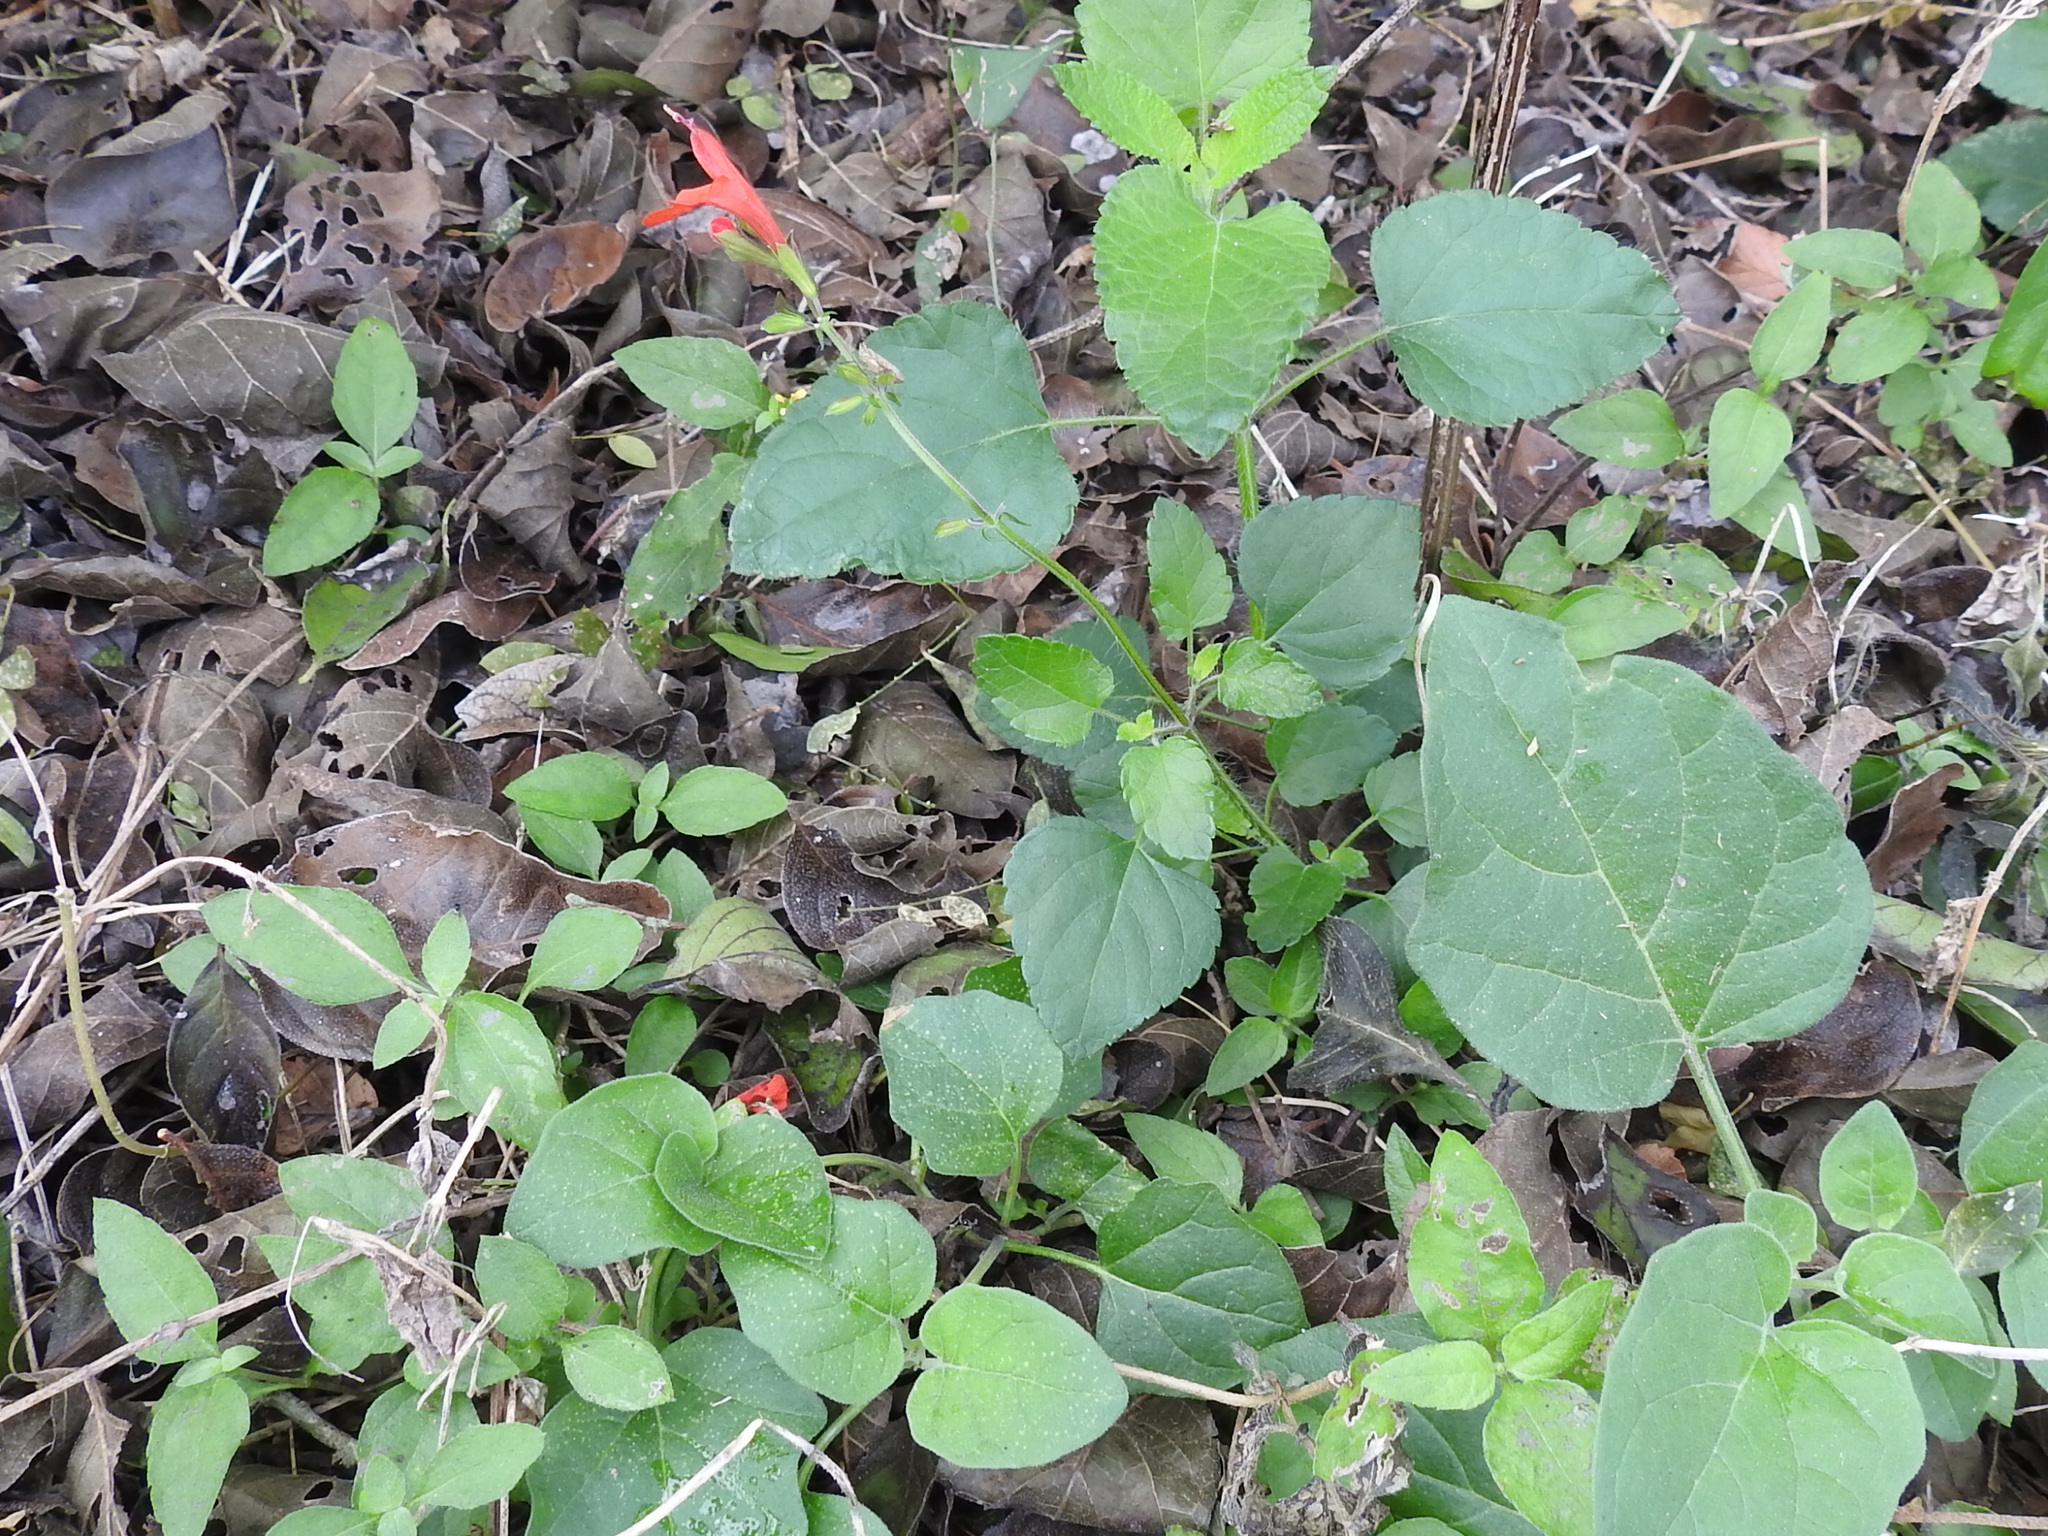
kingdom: Plantae
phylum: Tracheophyta
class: Magnoliopsida
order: Lamiales
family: Lamiaceae
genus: Salvia
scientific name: Salvia coccinea
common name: Blood sage
